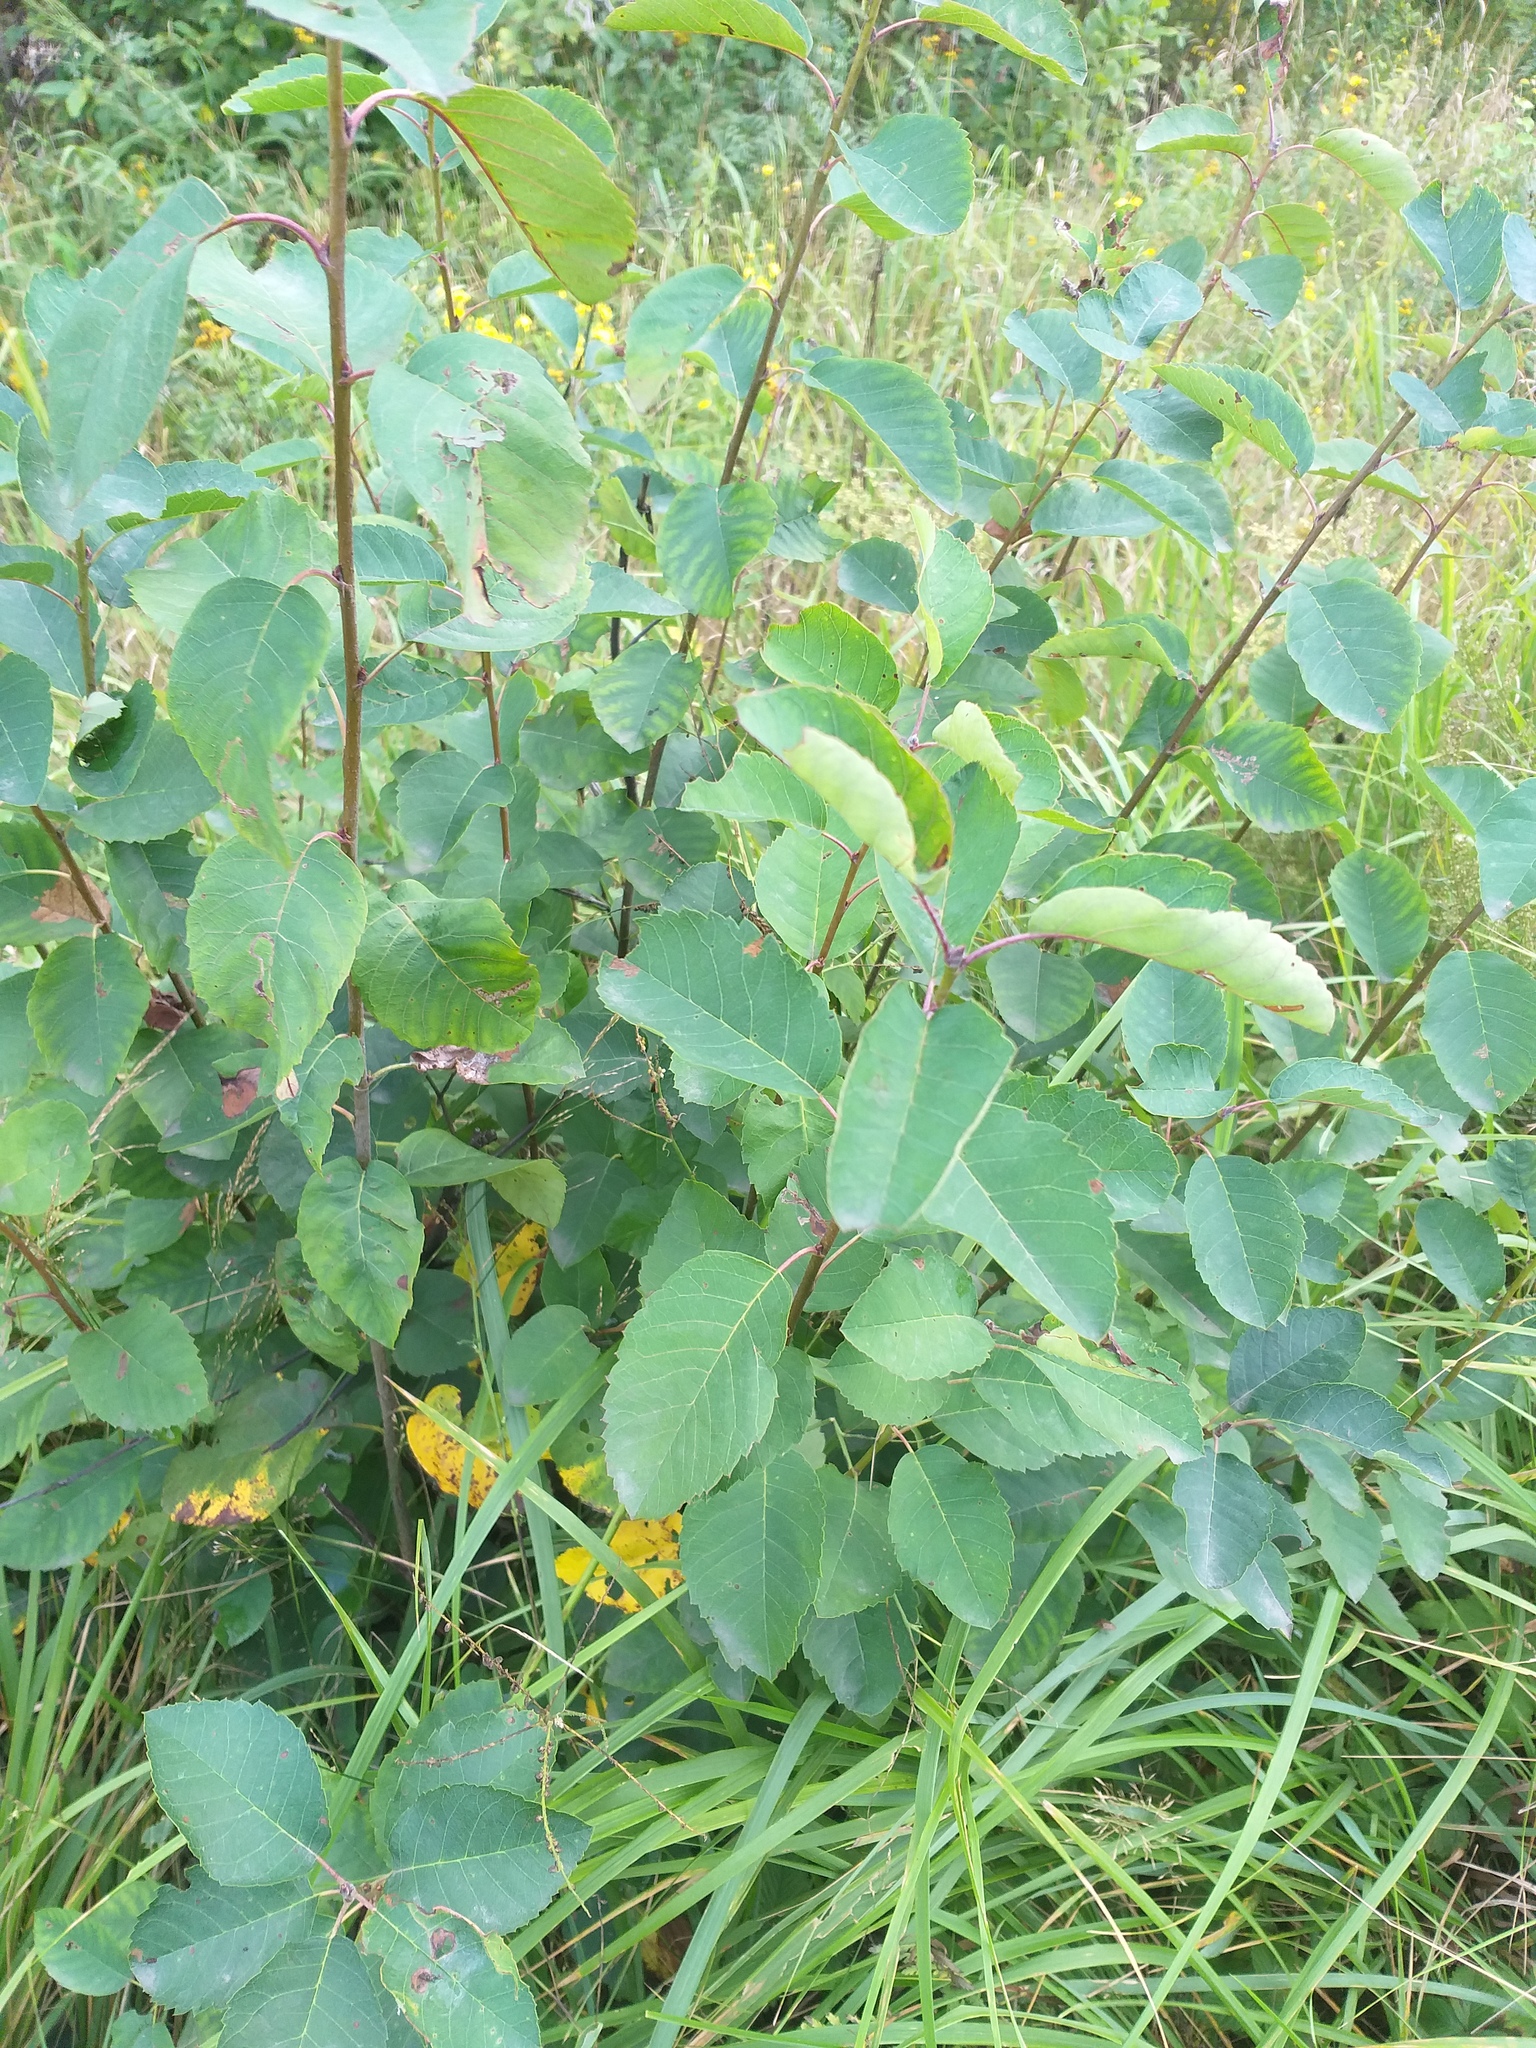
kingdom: Plantae
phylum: Tracheophyta
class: Magnoliopsida
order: Rosales
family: Rosaceae
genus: Amelanchier
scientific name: Amelanchier
